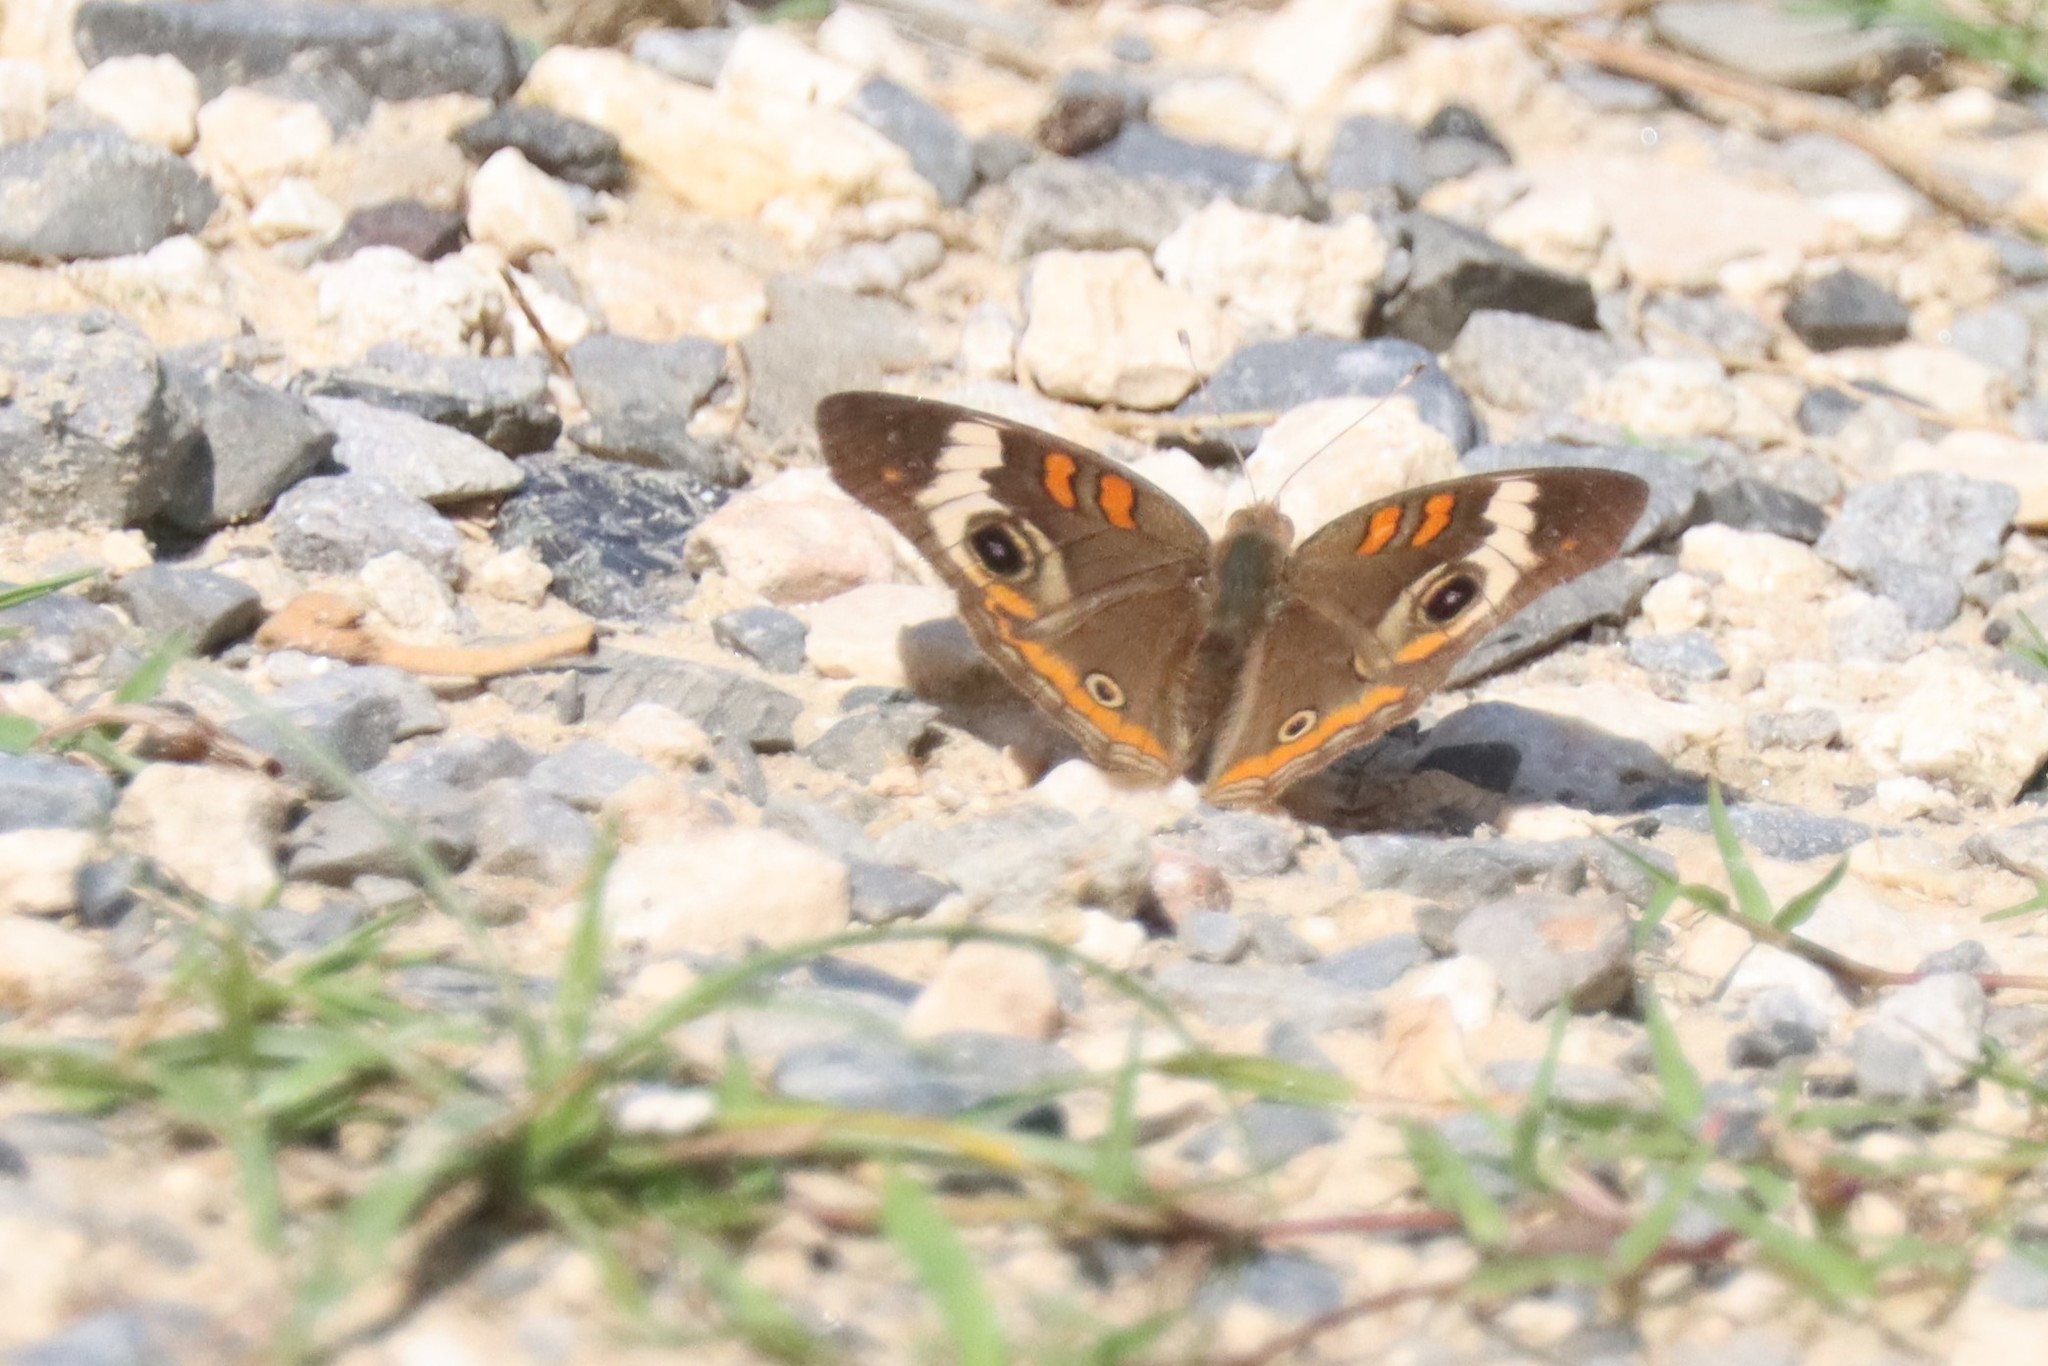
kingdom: Animalia
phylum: Arthropoda
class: Insecta
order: Lepidoptera
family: Nymphalidae
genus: Junonia
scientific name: Junonia coenia
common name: Common buckeye
